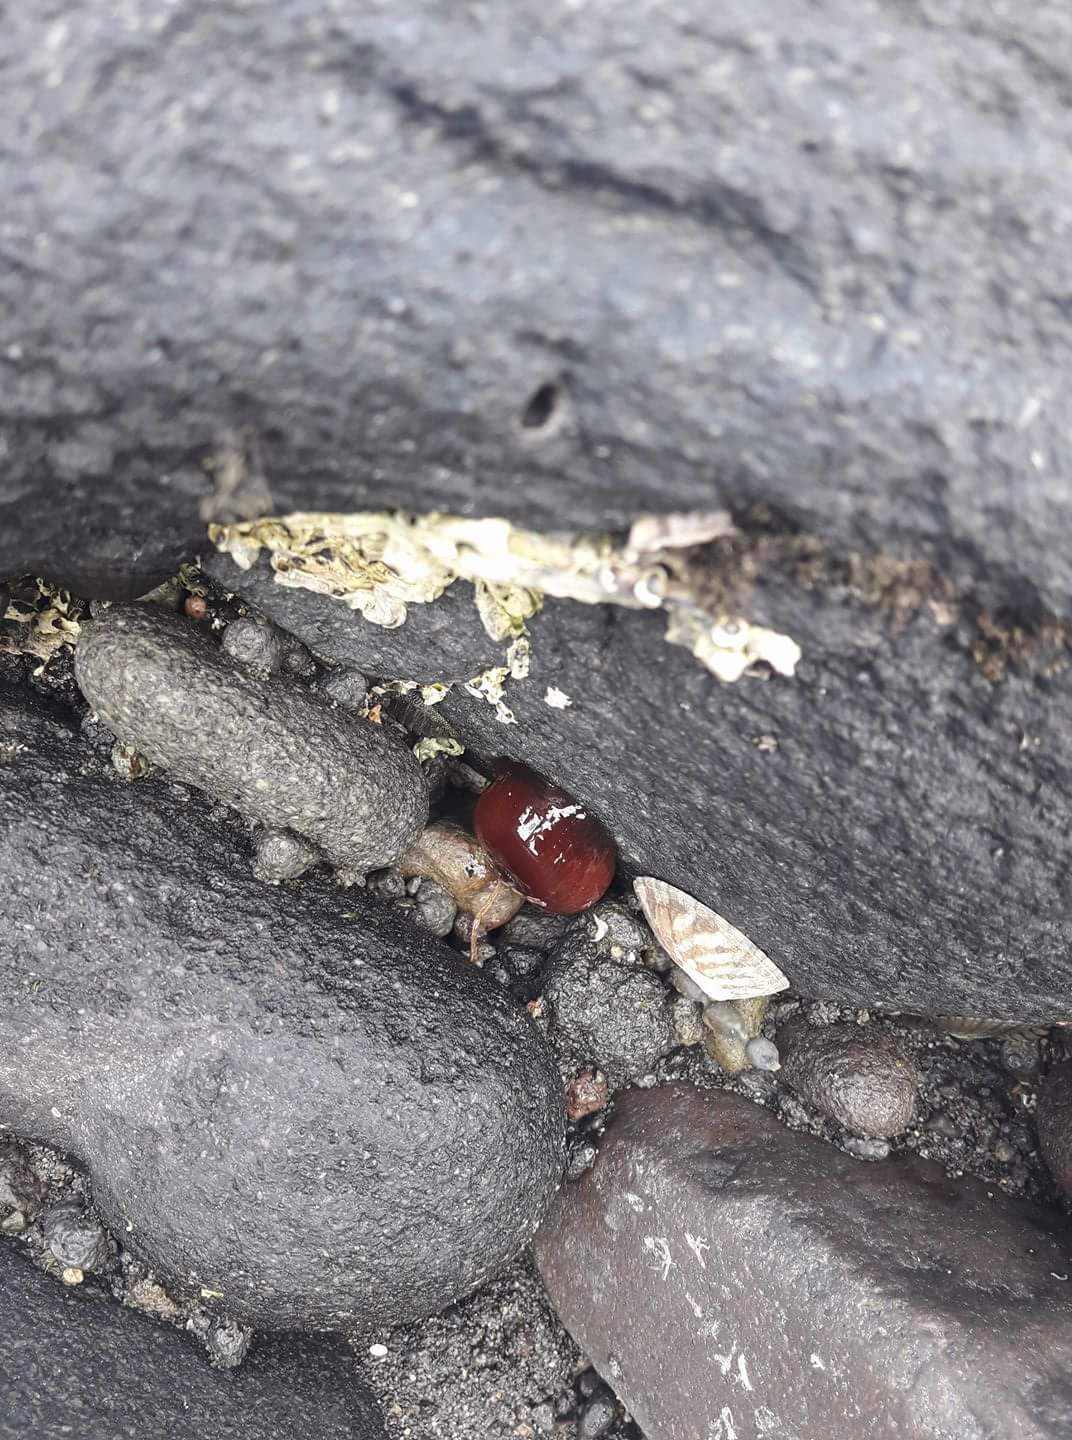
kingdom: Animalia
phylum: Cnidaria
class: Anthozoa
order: Actiniaria
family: Actiniidae
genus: Actinia
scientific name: Actinia tenebrosa
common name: Waratah anemone
